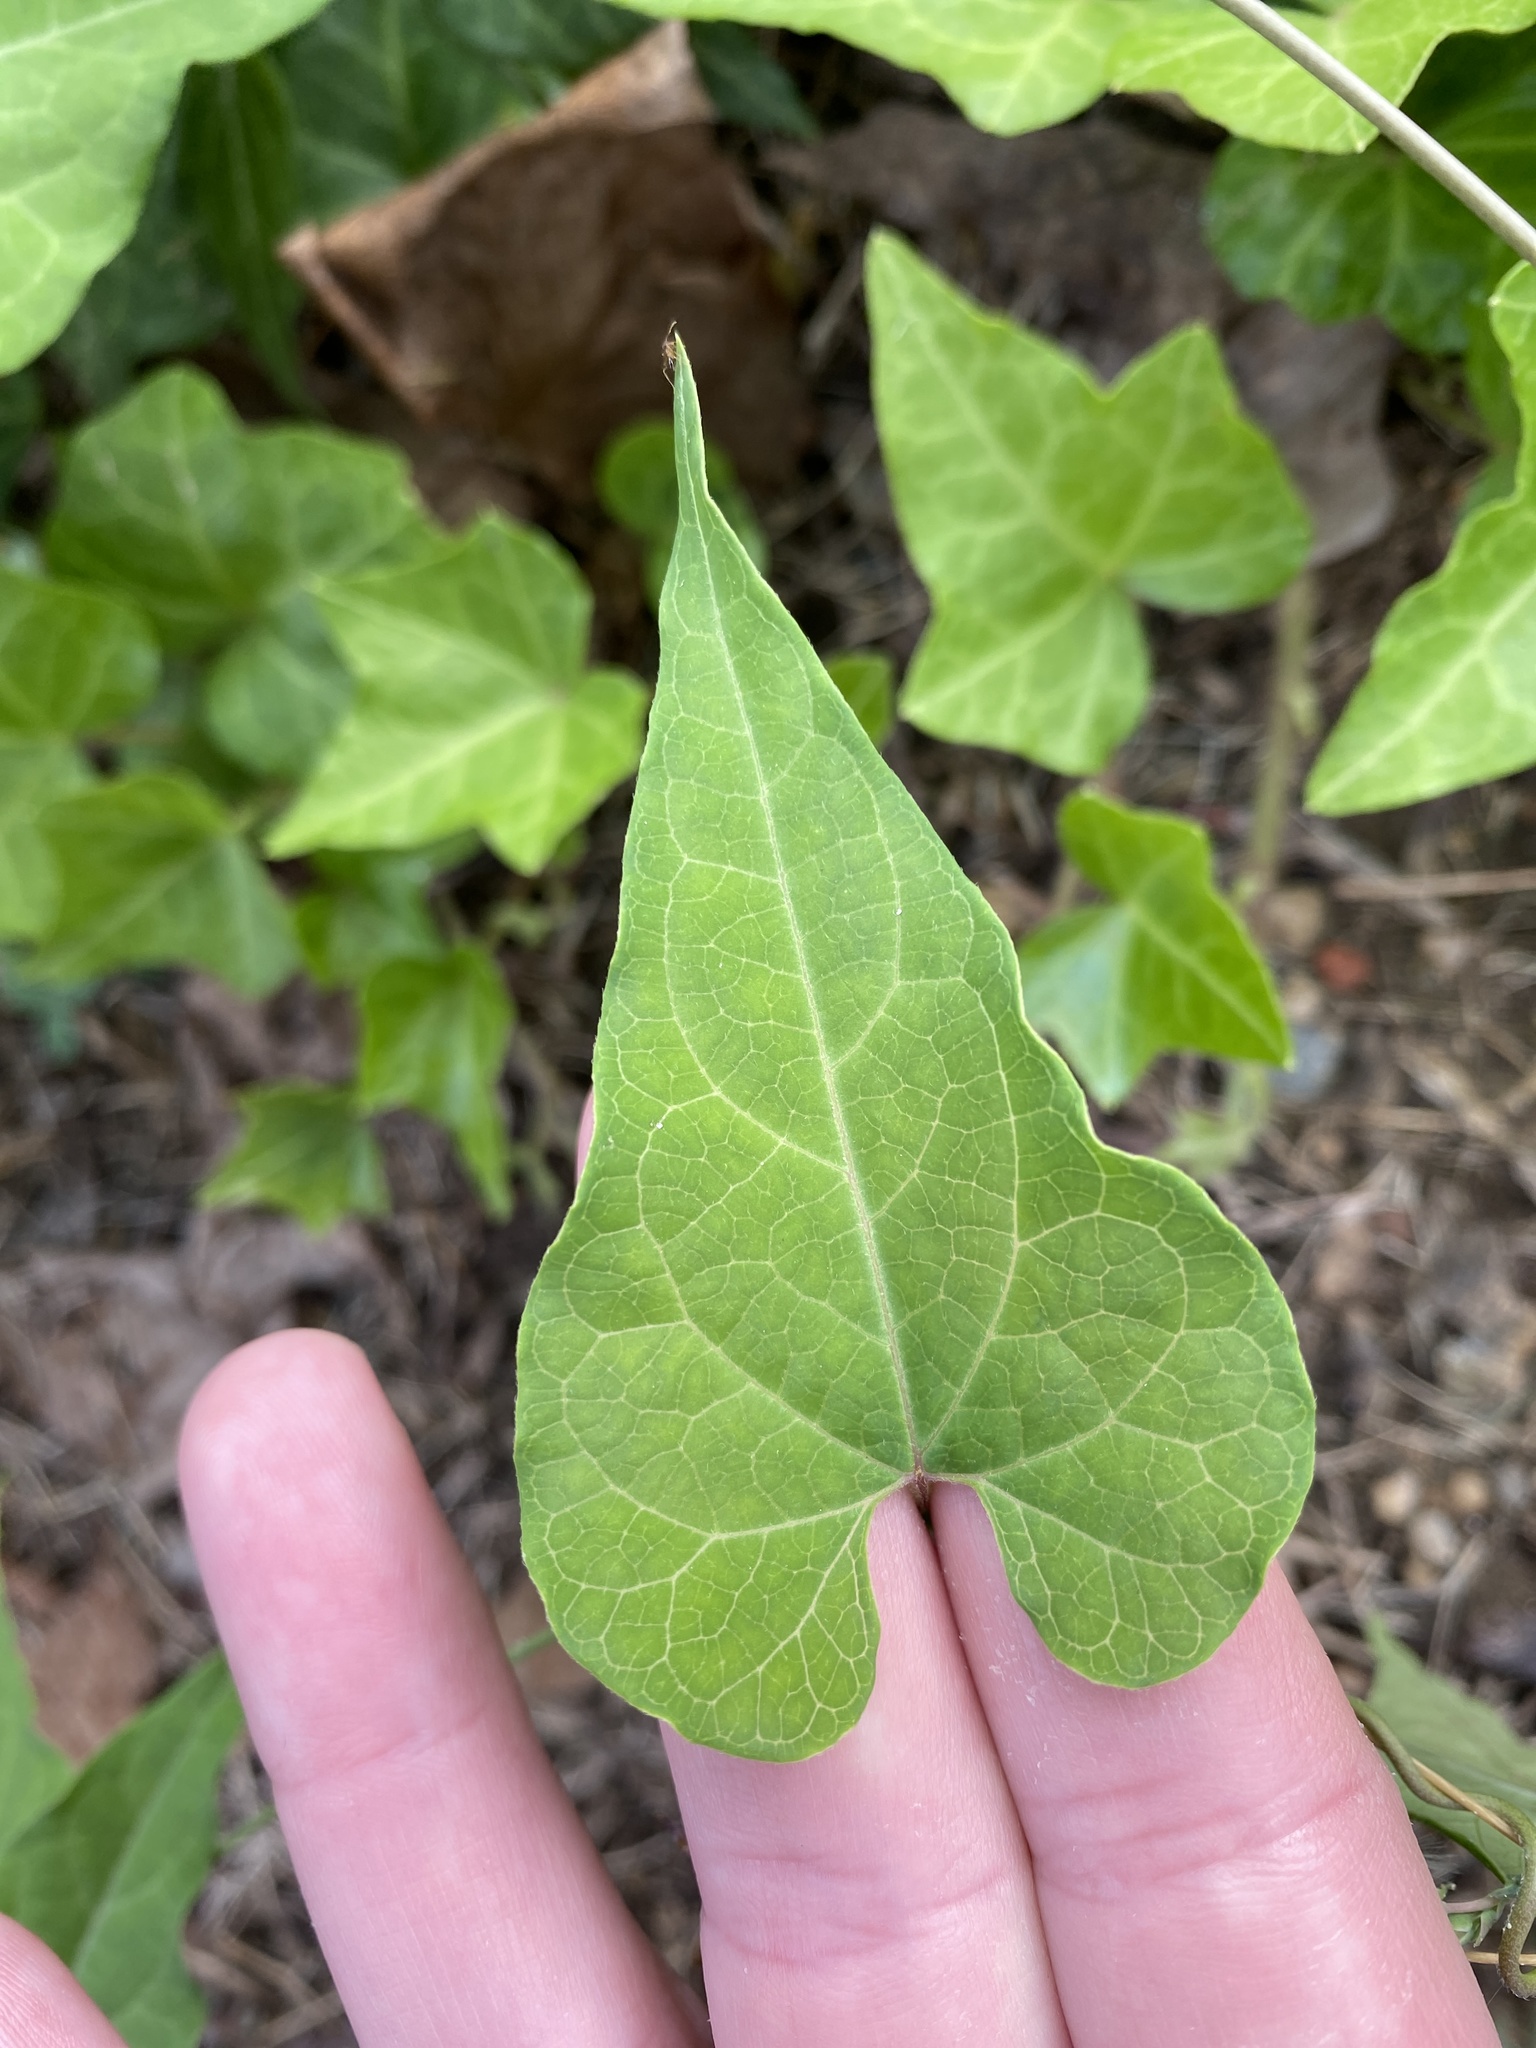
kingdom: Plantae
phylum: Tracheophyta
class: Magnoliopsida
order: Gentianales
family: Apocynaceae
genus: Cynanchum
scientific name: Cynanchum laeve
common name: Sandvine
